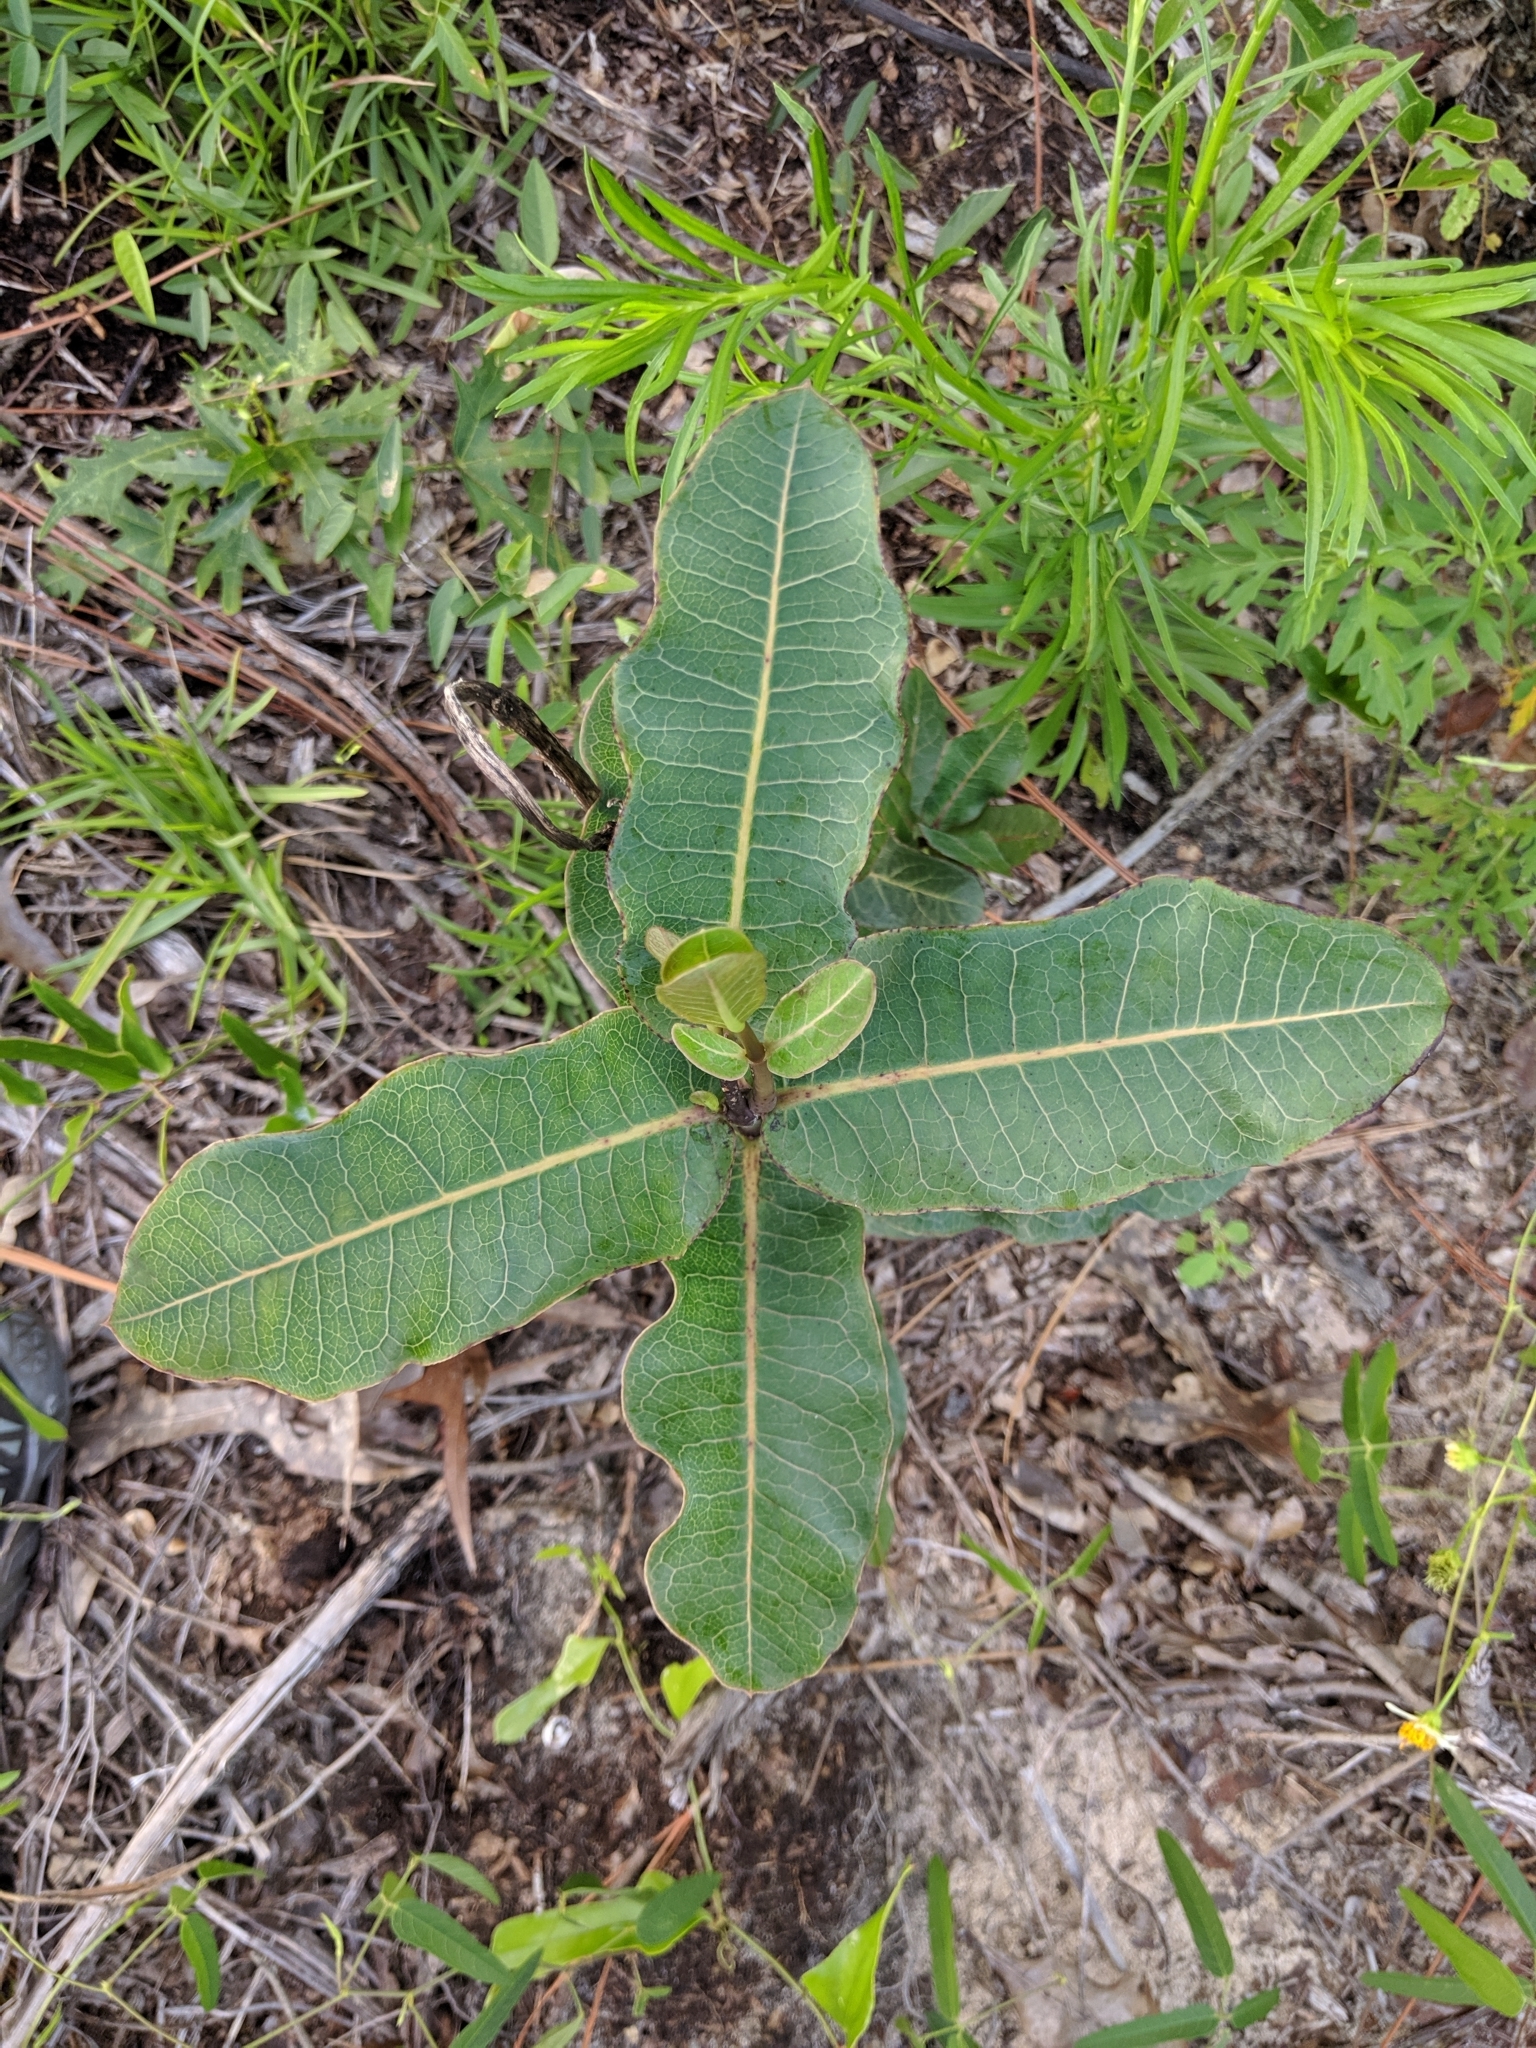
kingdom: Plantae
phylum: Tracheophyta
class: Magnoliopsida
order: Gentianales
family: Apocynaceae
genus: Asclepias
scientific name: Asclepias amplexicaulis
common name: Blunt-leaf milkweed
